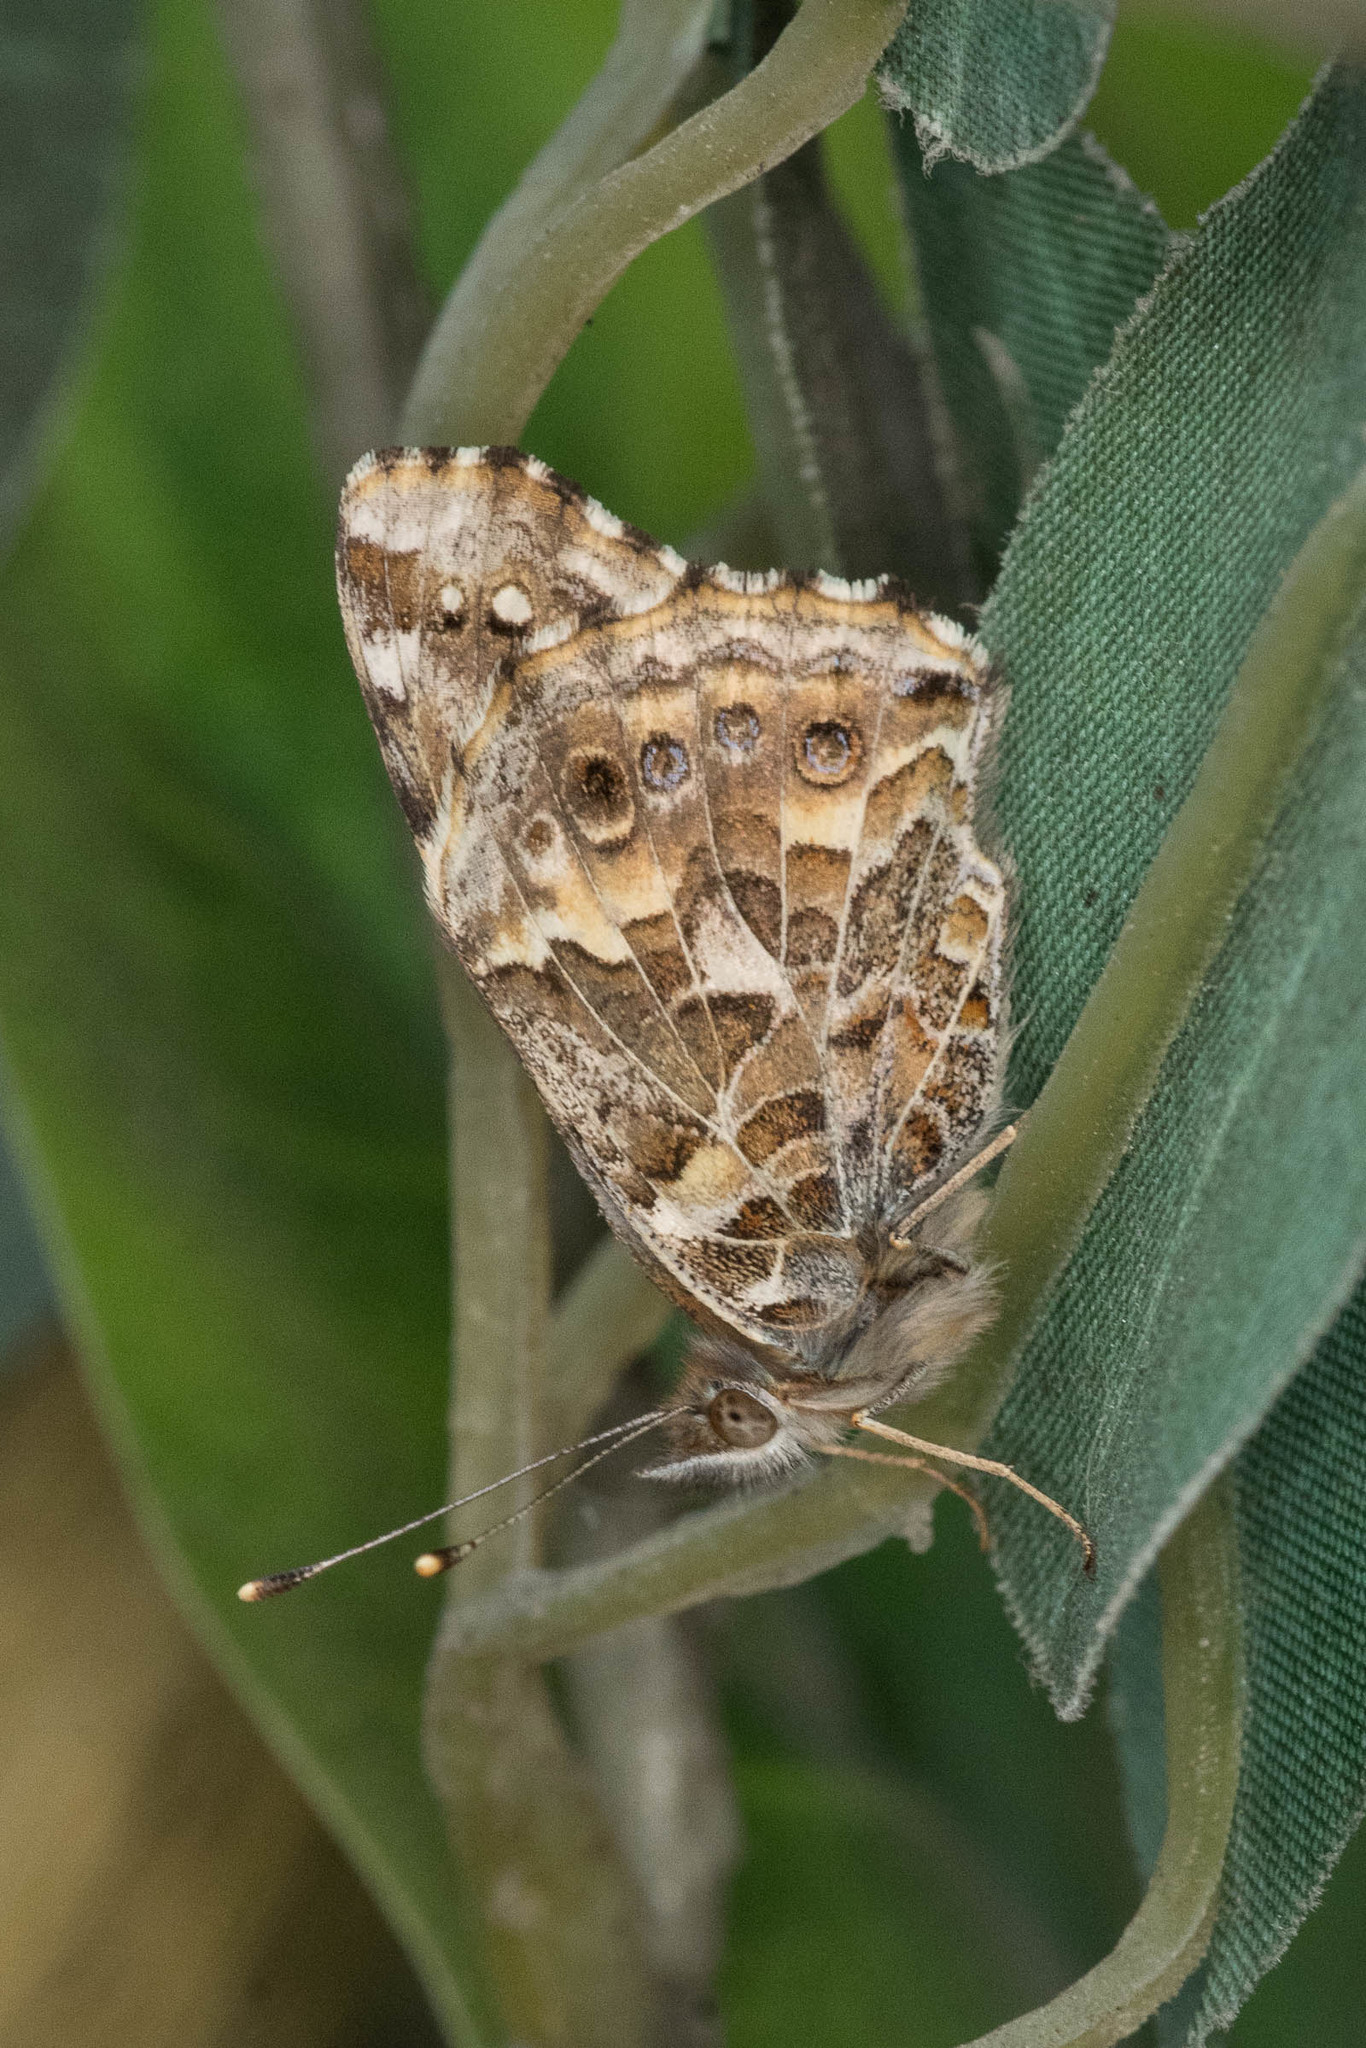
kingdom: Animalia
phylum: Arthropoda
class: Insecta
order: Lepidoptera
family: Nymphalidae
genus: Vanessa
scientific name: Vanessa kershawi
